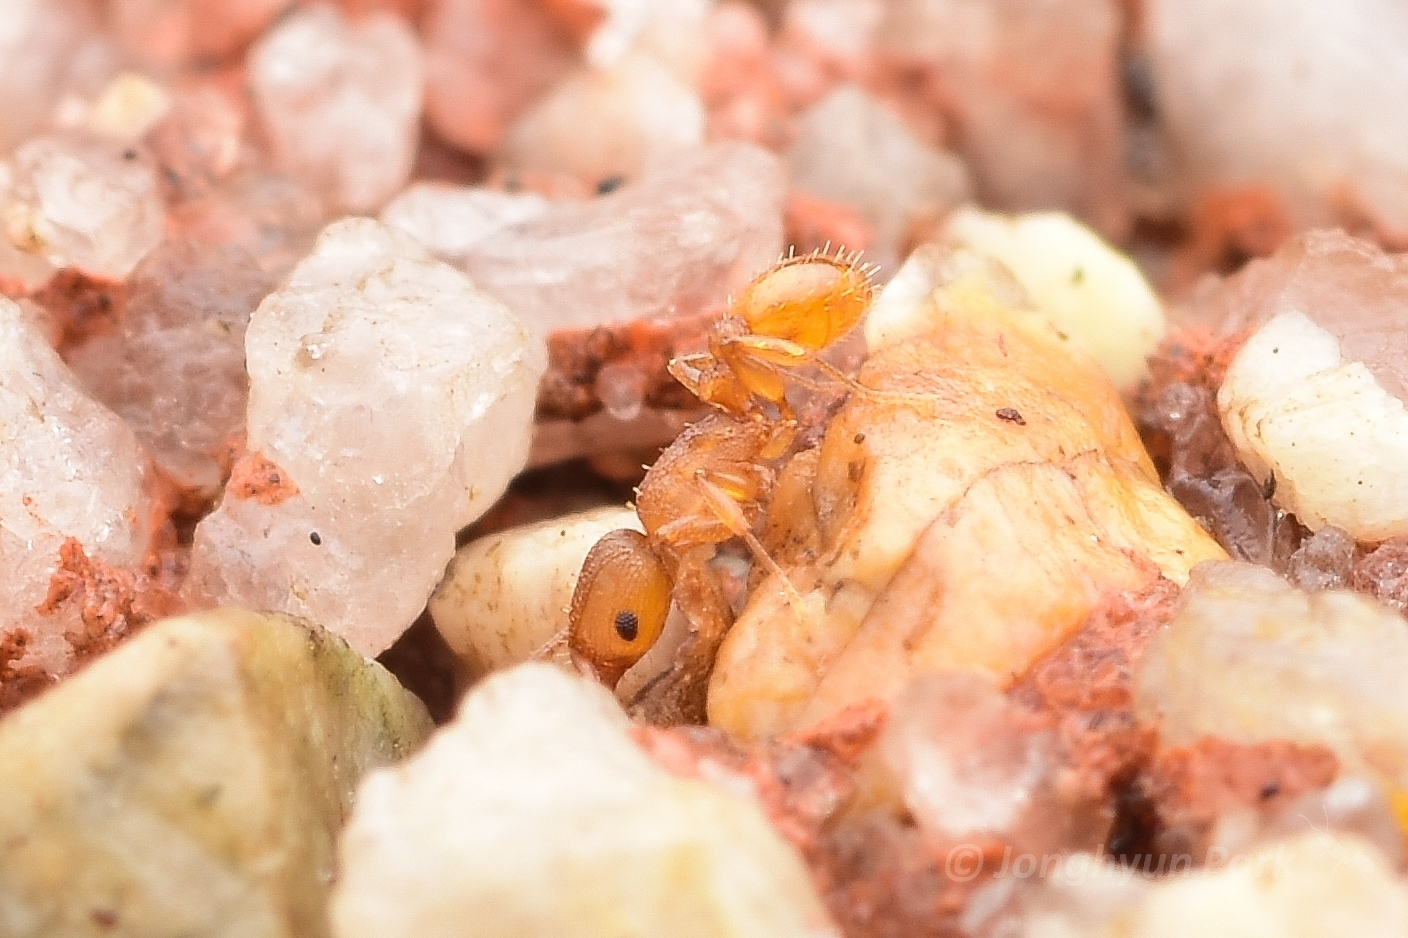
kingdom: Animalia
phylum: Arthropoda
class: Insecta
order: Hymenoptera
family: Formicidae
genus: Tetramorium
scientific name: Tetramorium simillimum
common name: Ant
